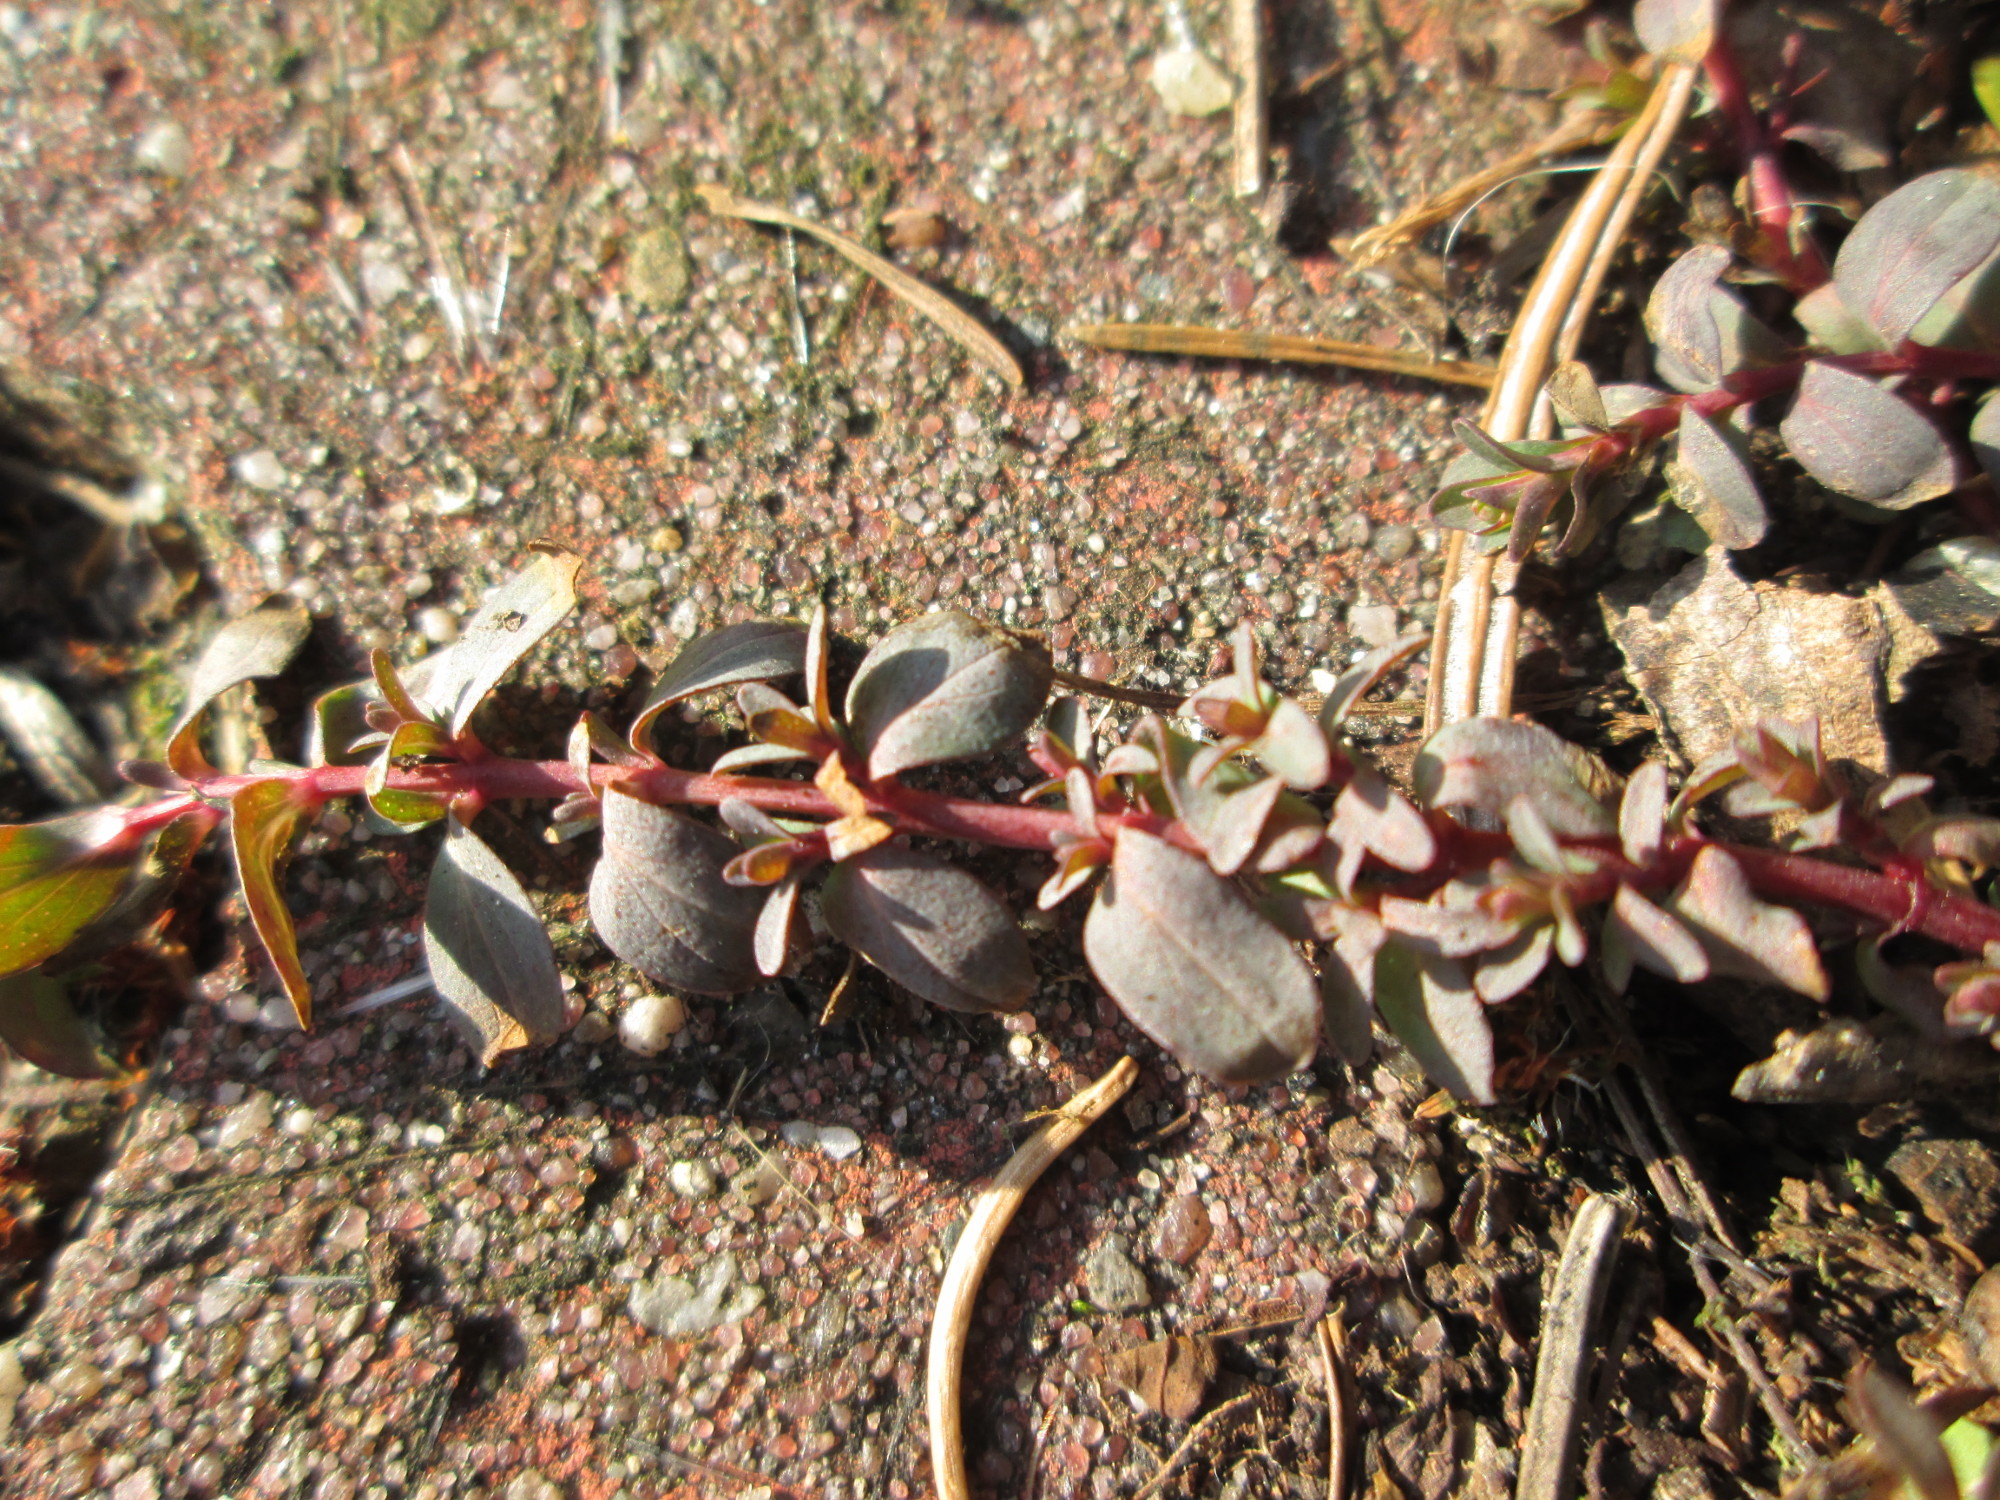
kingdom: Plantae
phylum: Tracheophyta
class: Magnoliopsida
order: Malpighiales
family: Hypericaceae
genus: Hypericum
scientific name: Hypericum humifusum
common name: Trailing st. john's-wort
